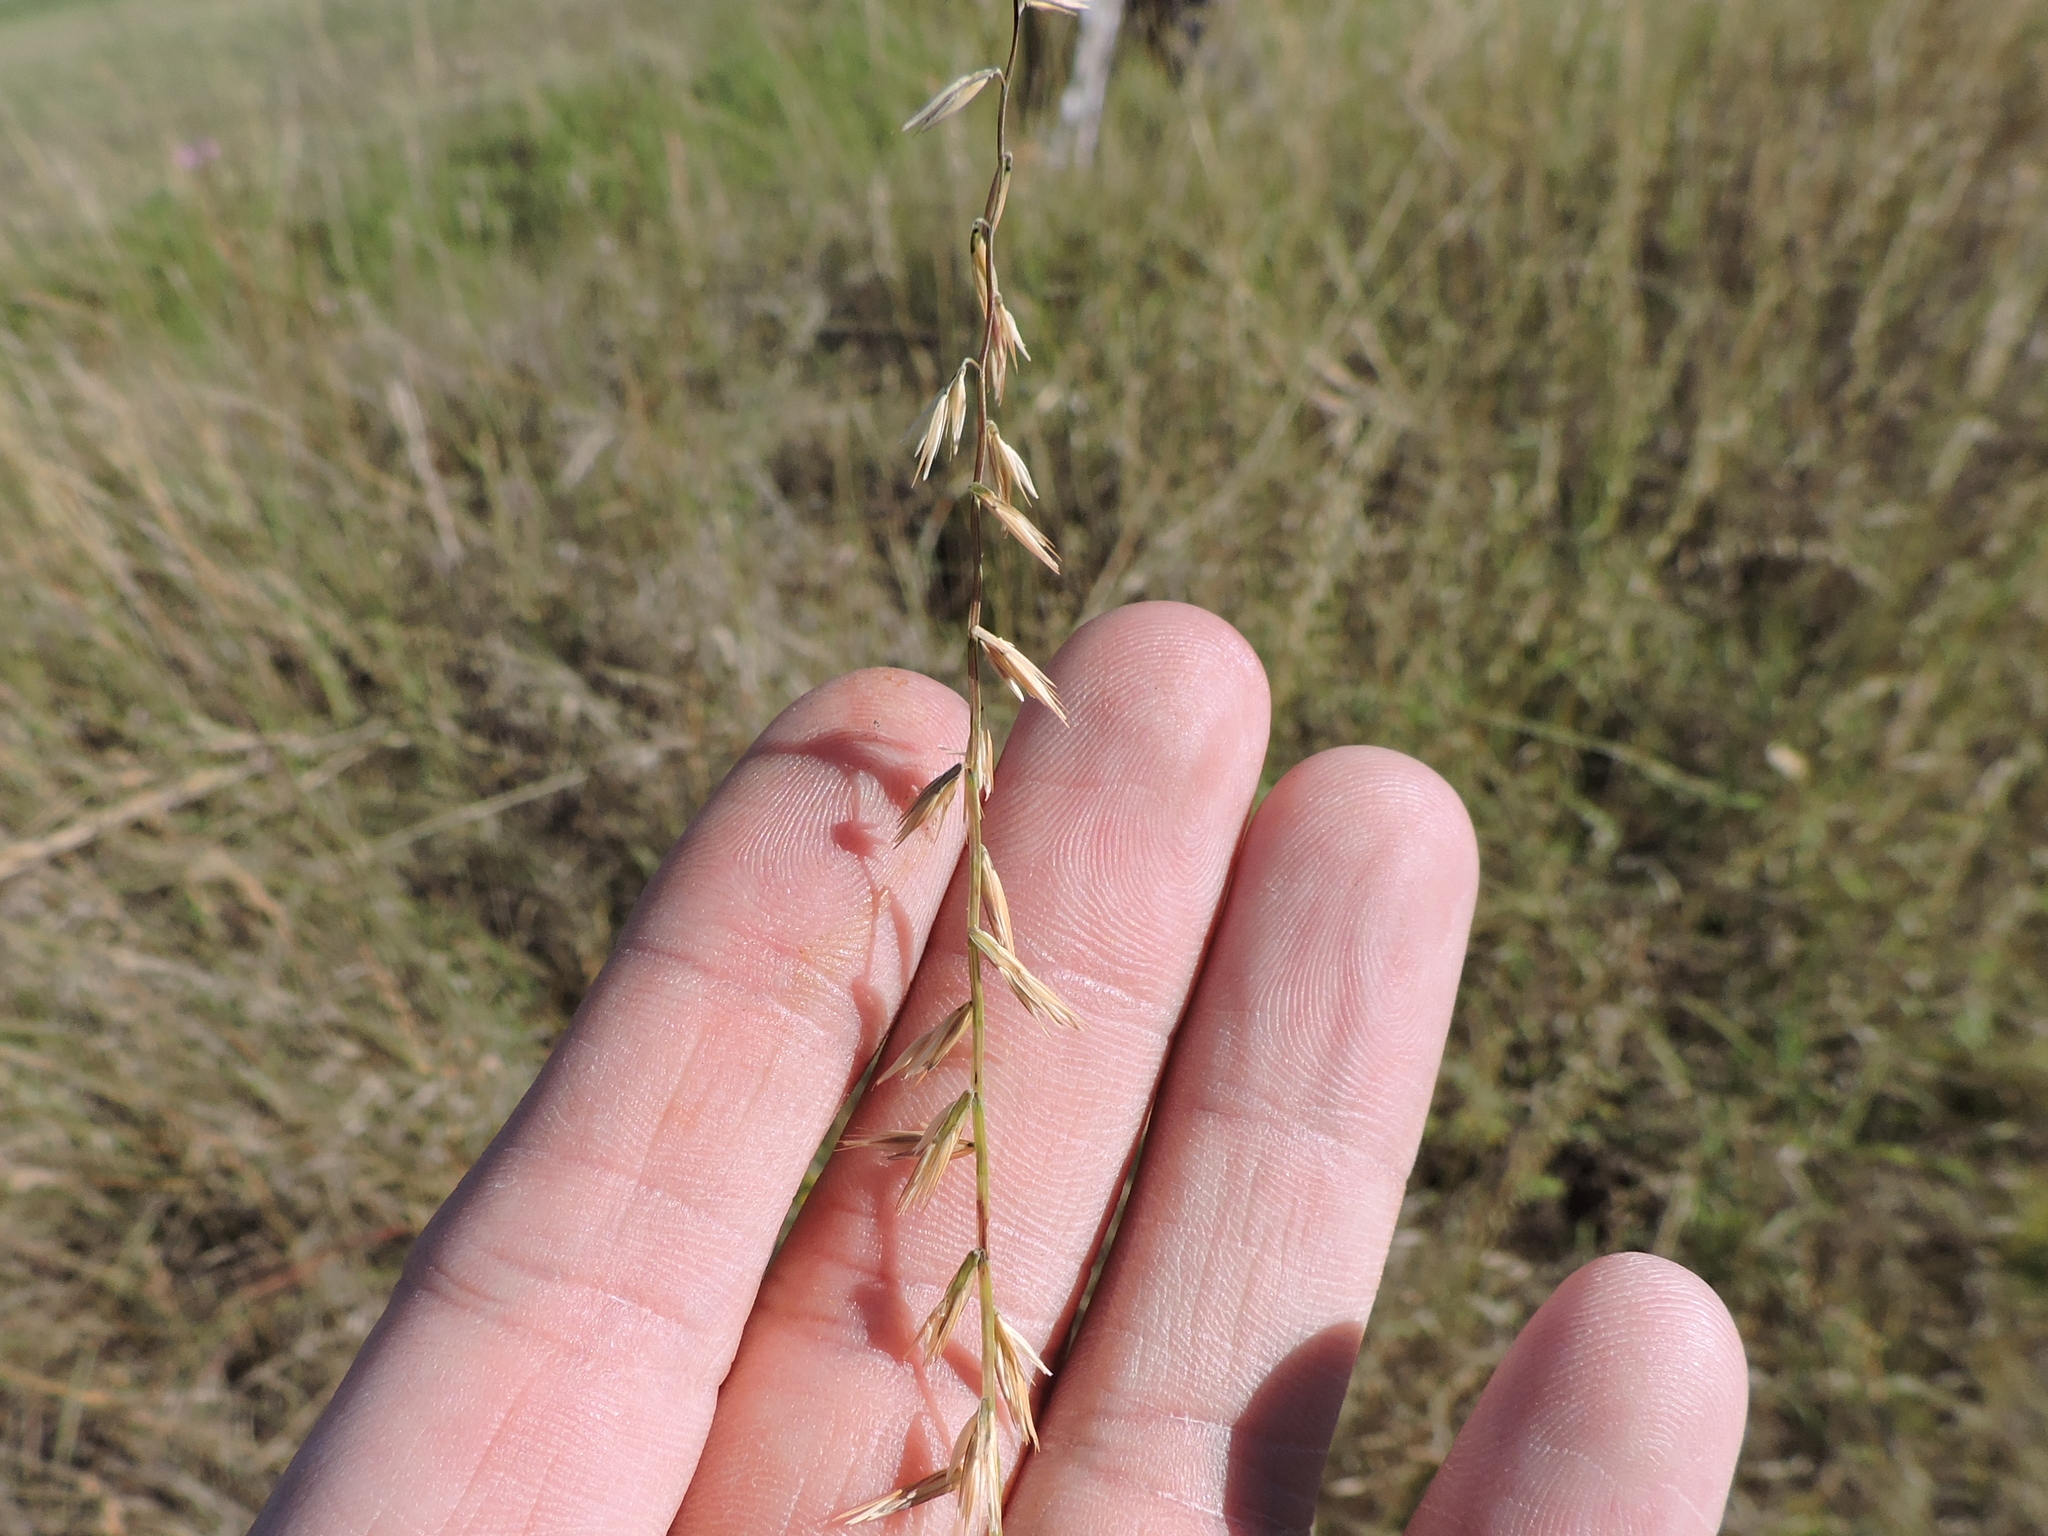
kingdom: Plantae
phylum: Tracheophyta
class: Liliopsida
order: Poales
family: Poaceae
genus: Bouteloua
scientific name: Bouteloua curtipendula
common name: Side-oats grama
